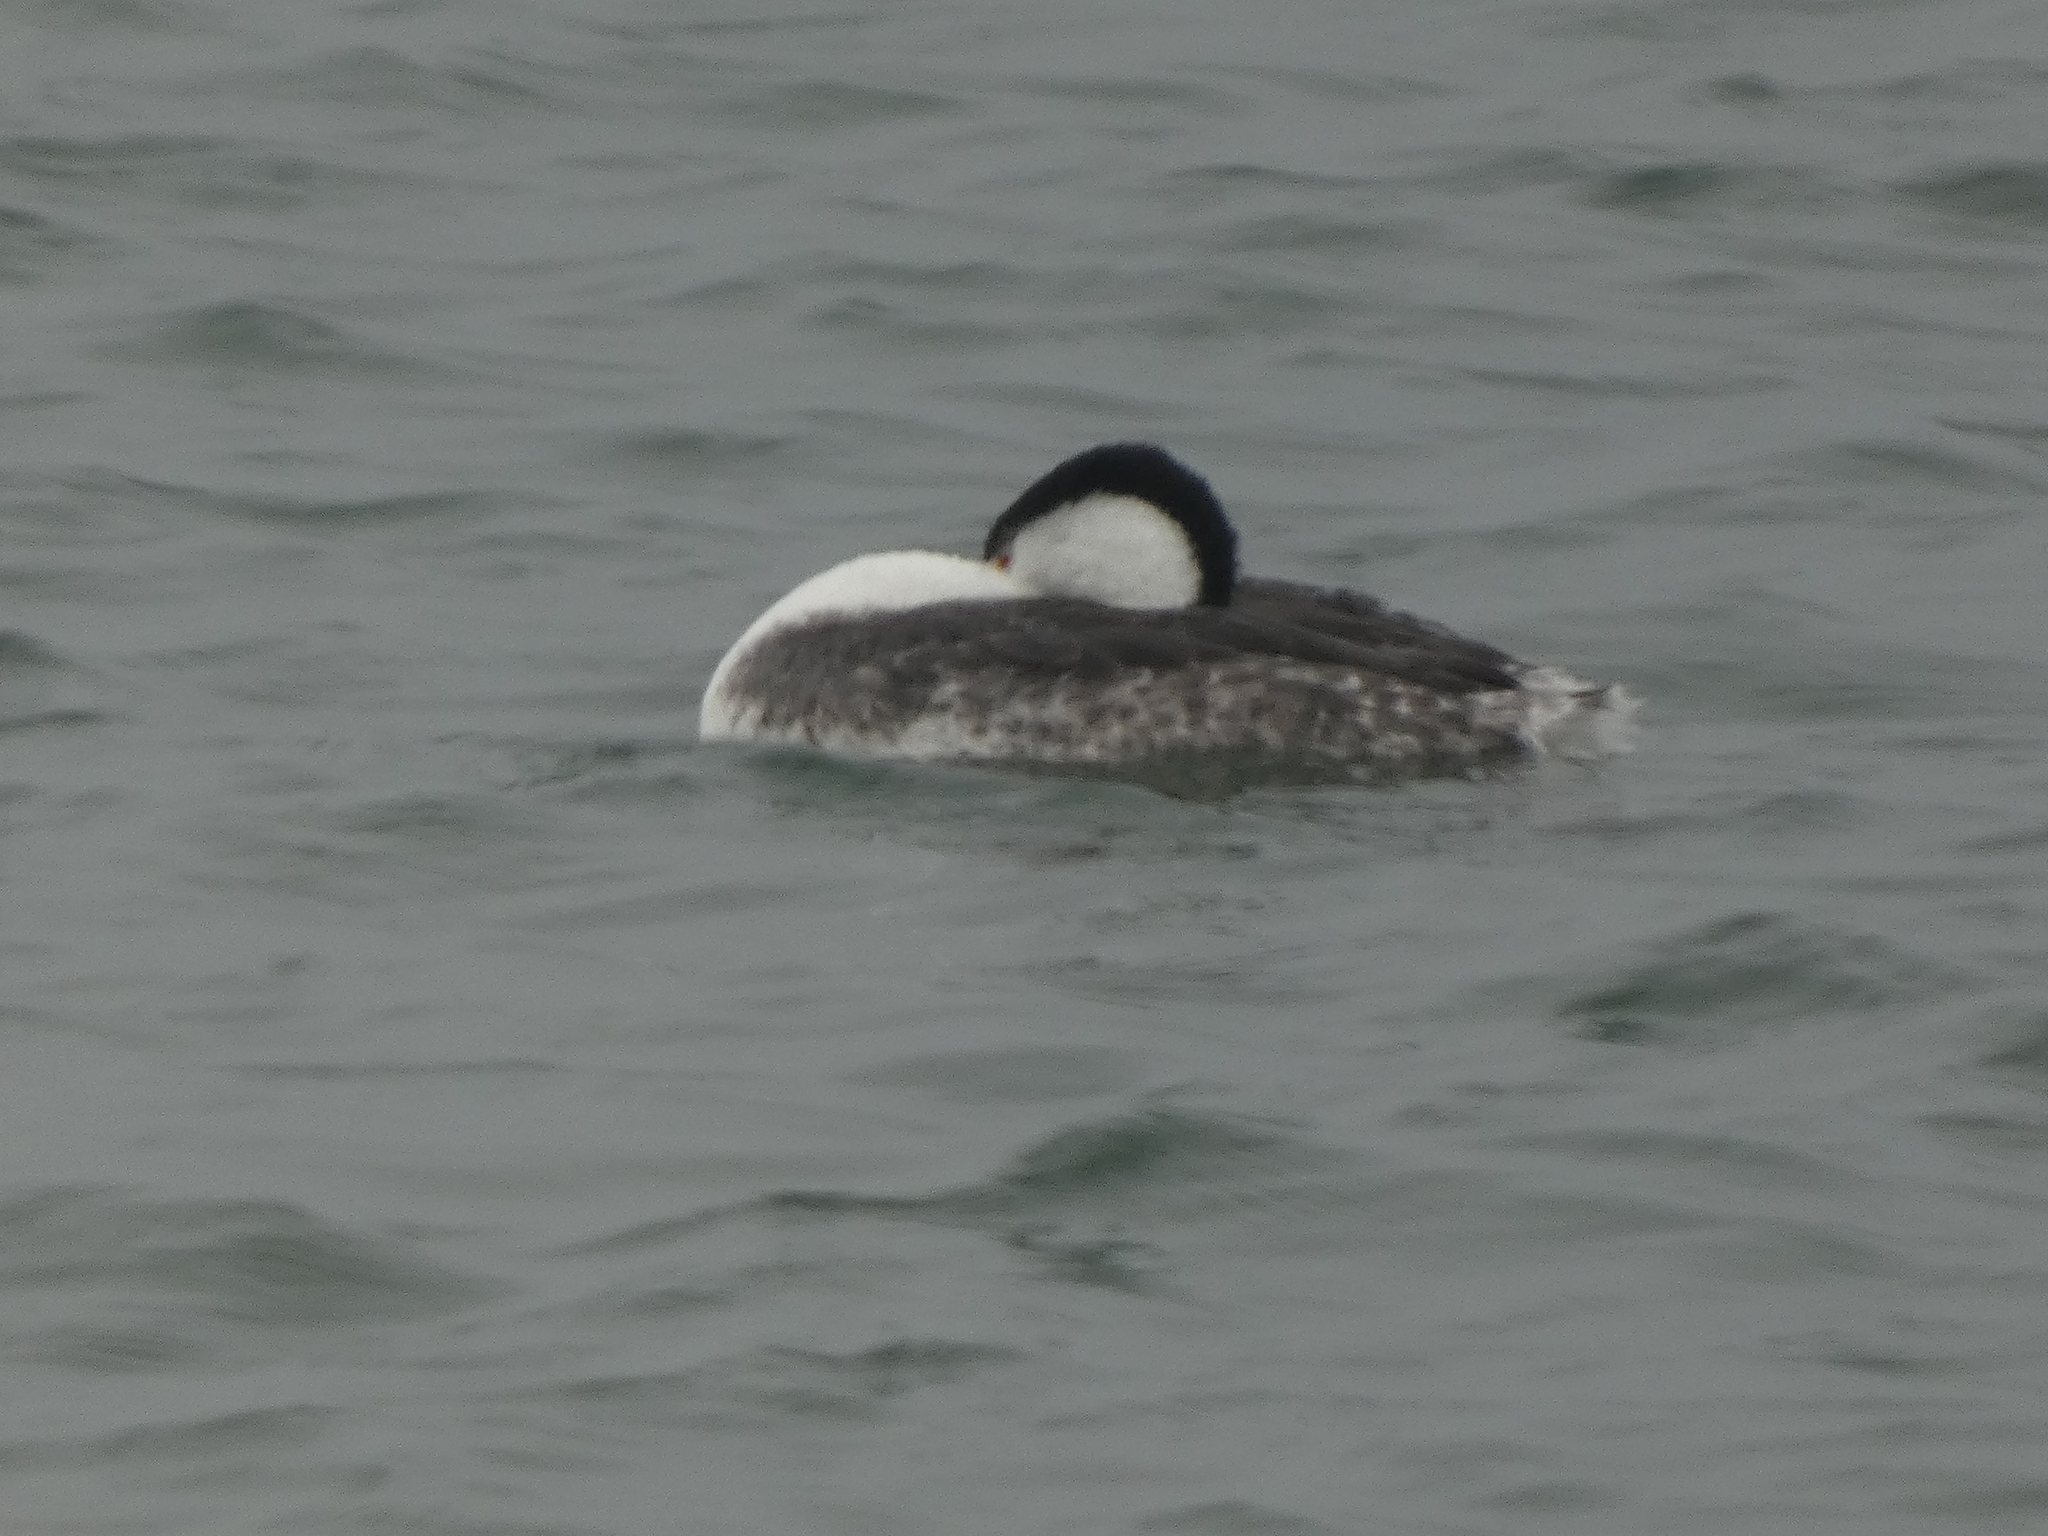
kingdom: Animalia
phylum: Chordata
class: Aves
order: Podicipediformes
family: Podicipedidae
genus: Aechmophorus
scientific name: Aechmophorus clarkii
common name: Clark's grebe
